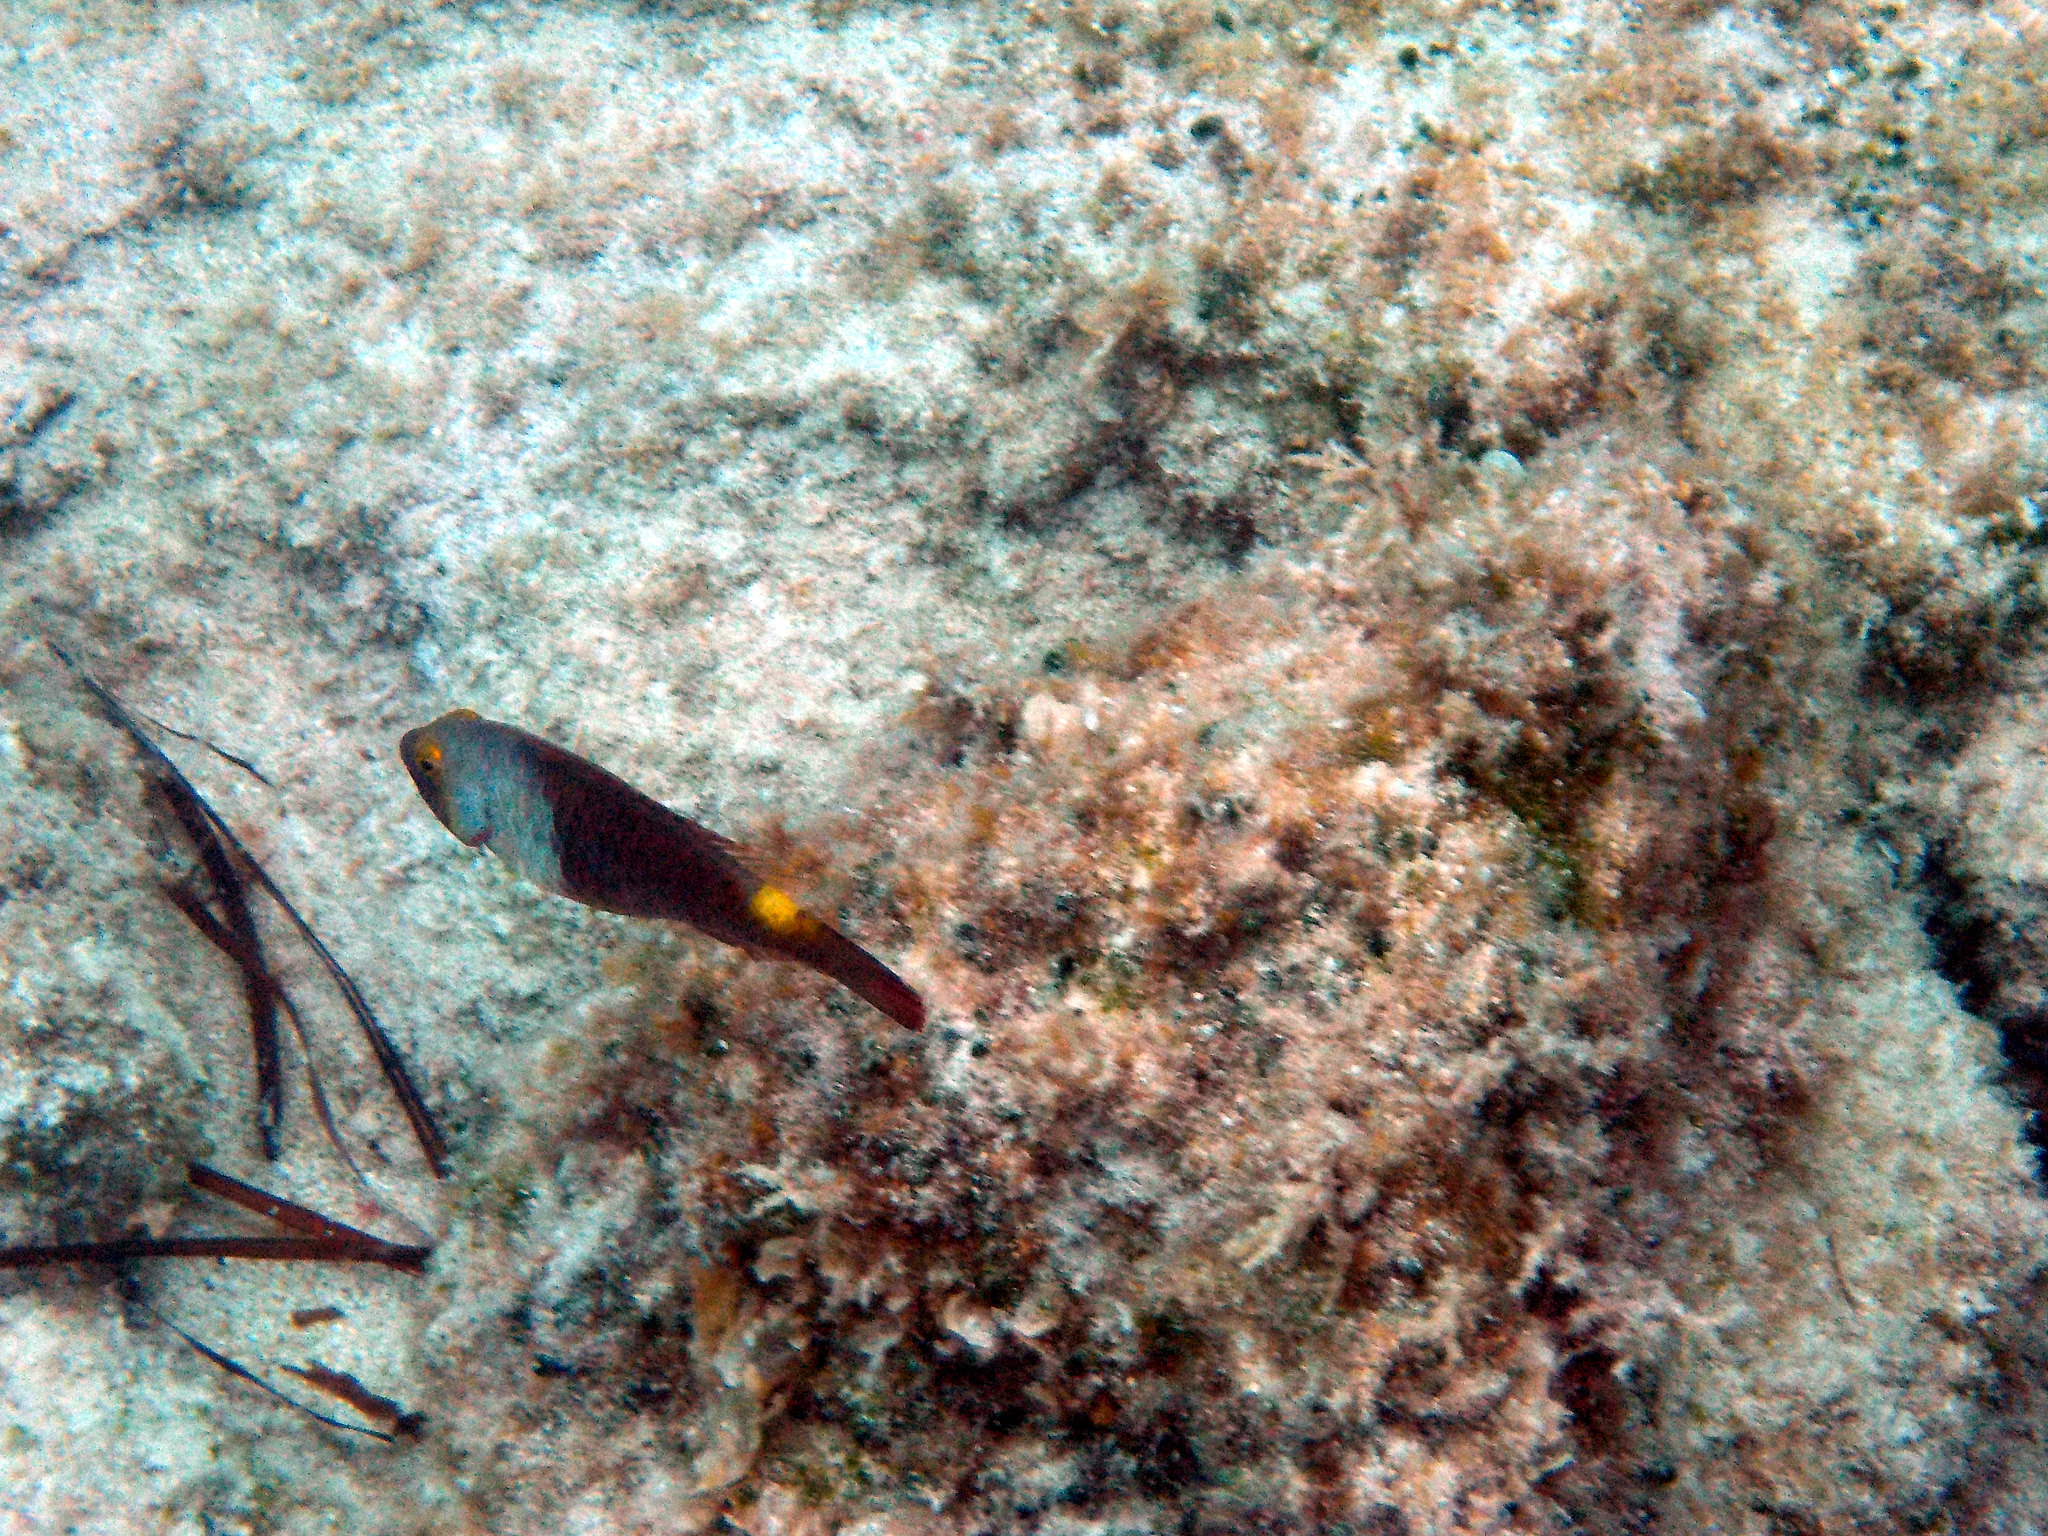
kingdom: Animalia
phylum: Chordata
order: Perciformes
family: Scaridae
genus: Sparisoma
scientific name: Sparisoma cretense
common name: Parrotfish
